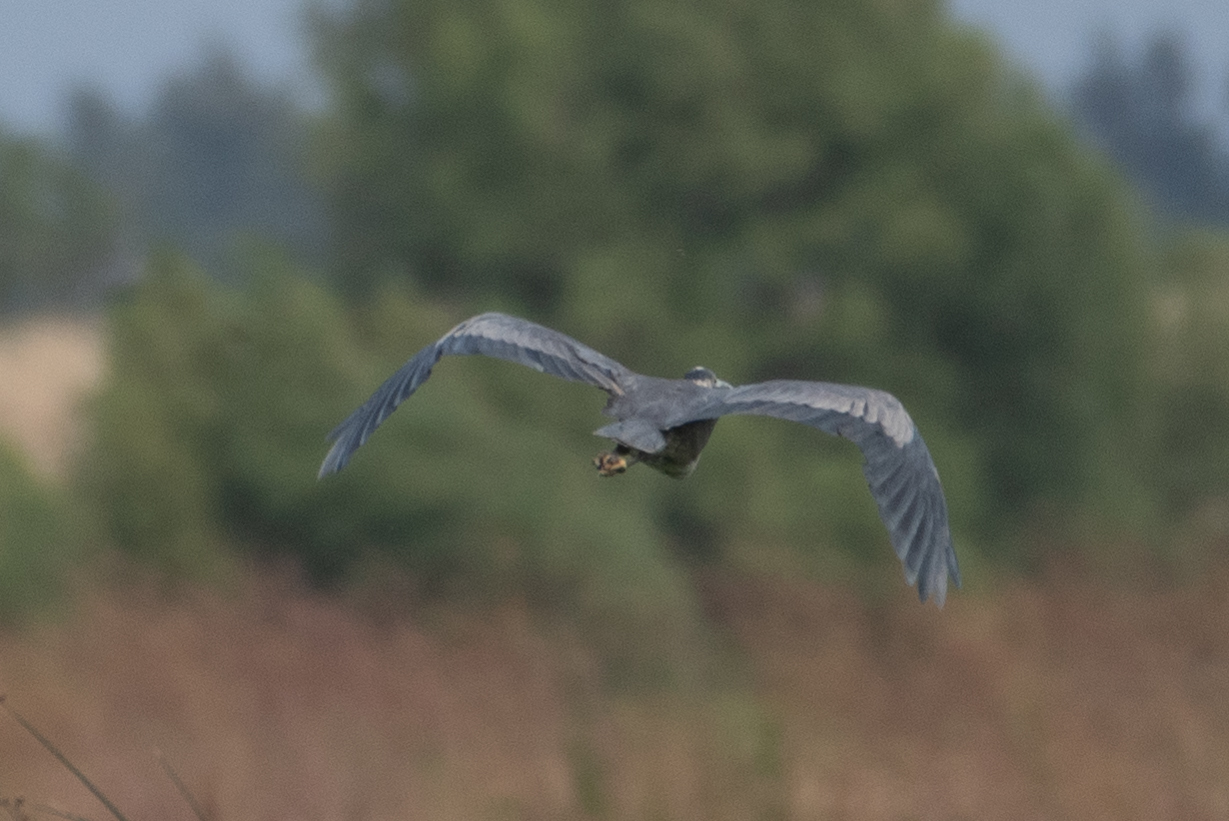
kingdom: Animalia
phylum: Chordata
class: Aves
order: Pelecaniformes
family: Ardeidae
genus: Ardea
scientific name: Ardea herodias
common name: Great blue heron
